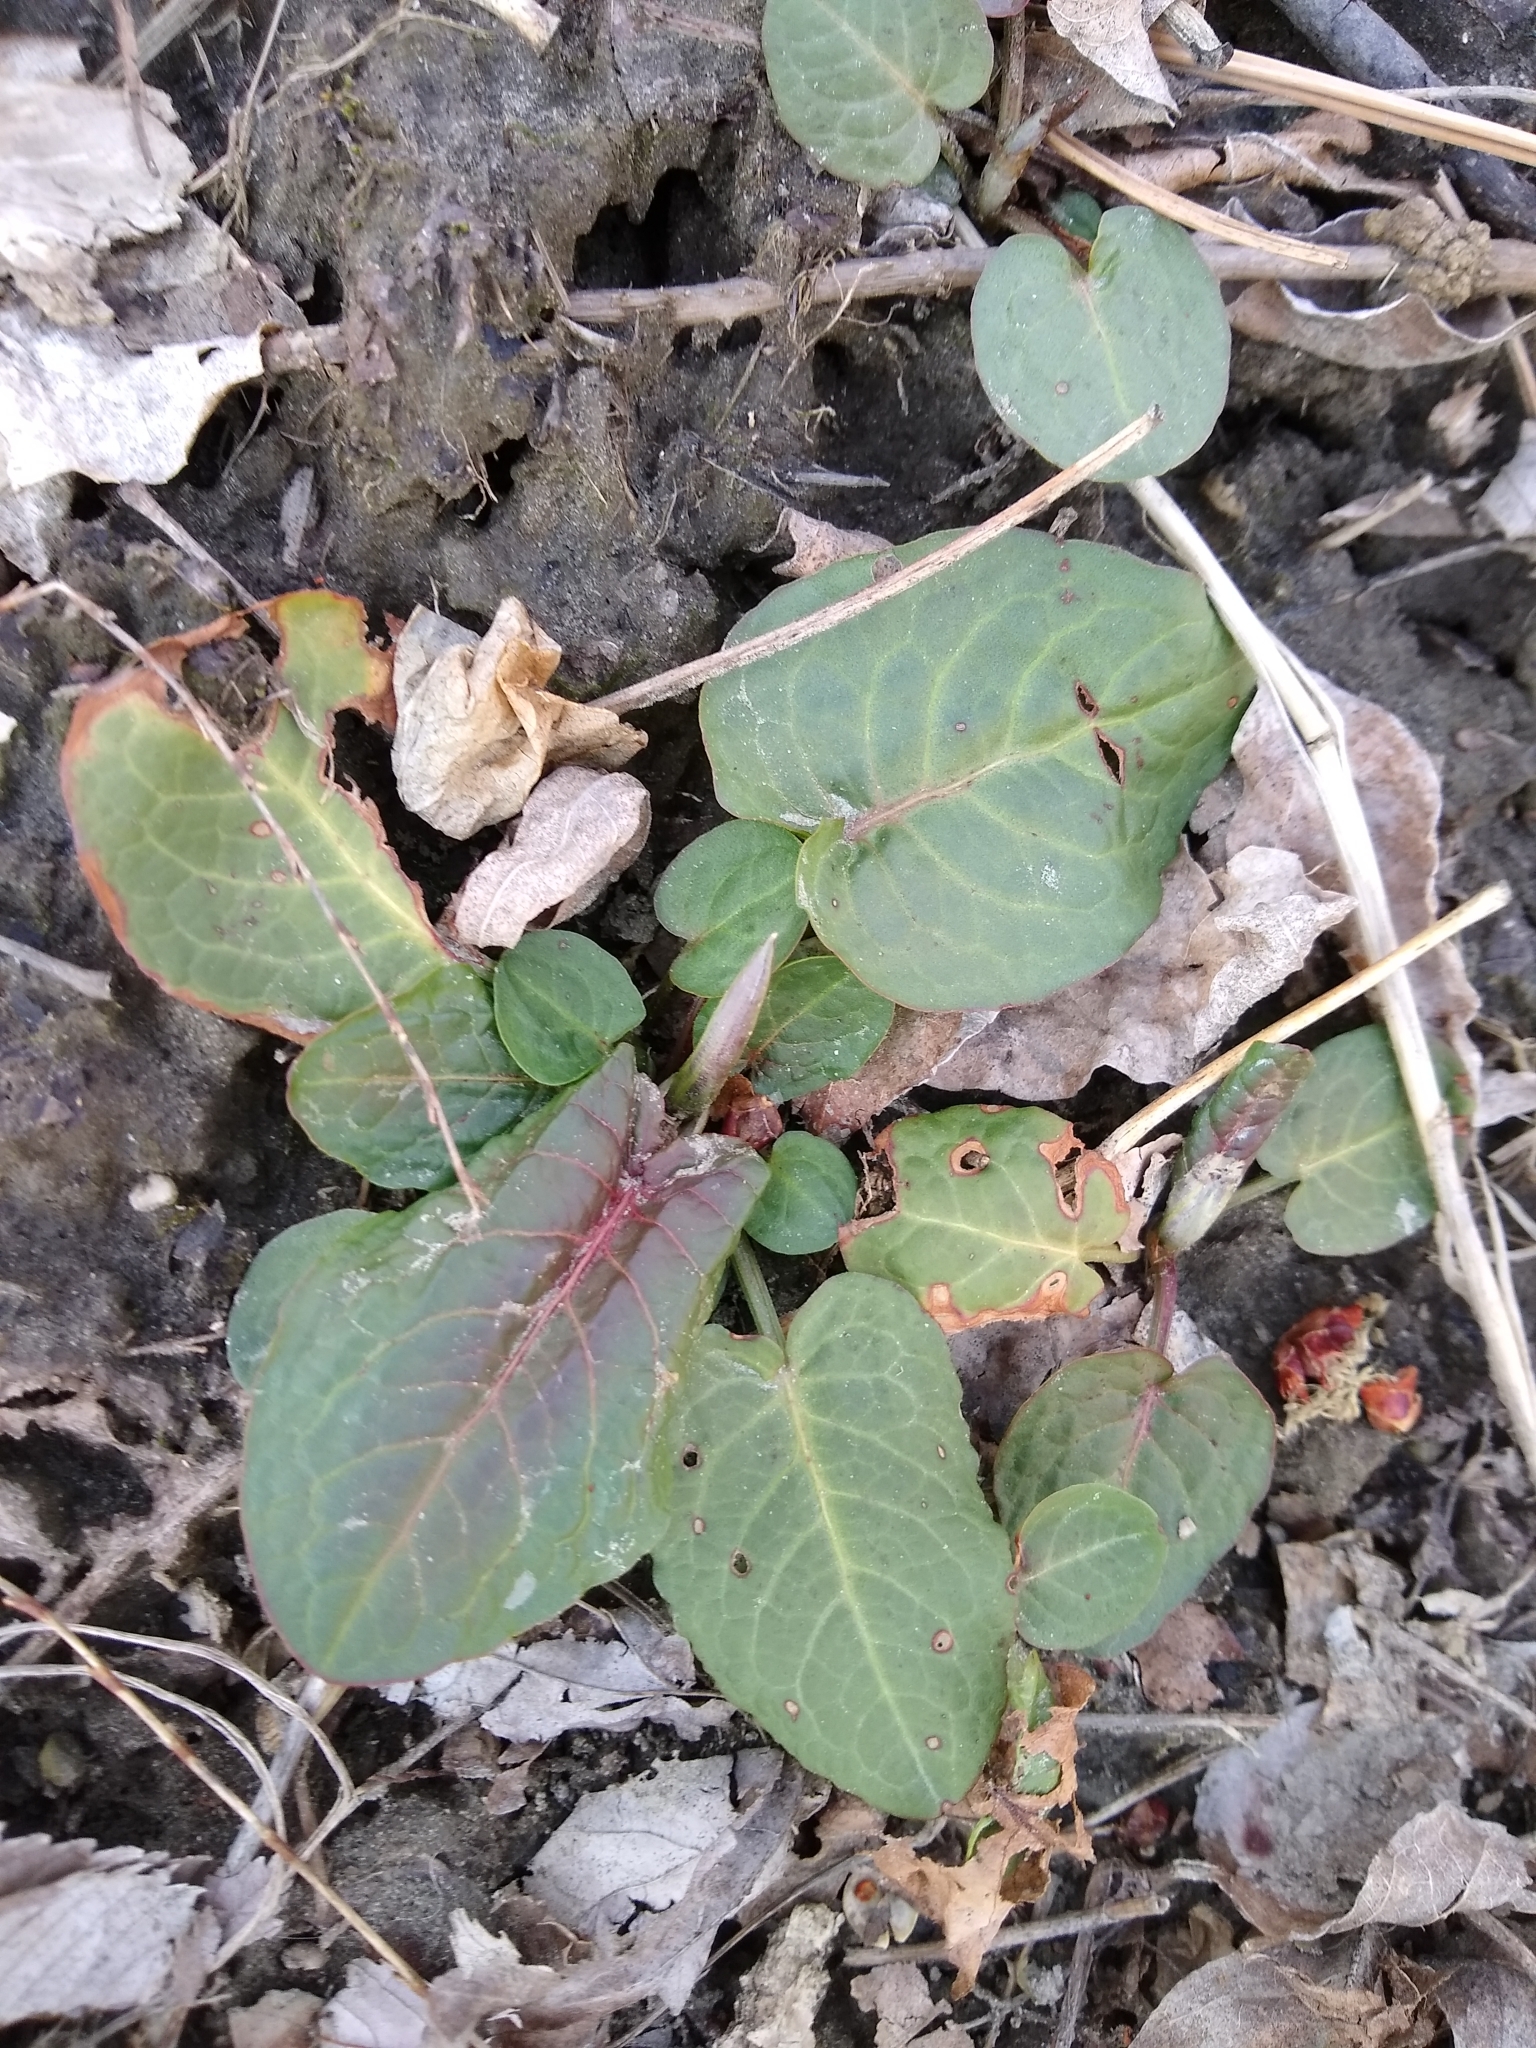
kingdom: Plantae
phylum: Tracheophyta
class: Magnoliopsida
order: Caryophyllales
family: Polygonaceae
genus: Rumex
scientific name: Rumex obtusifolius
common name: Bitter dock
